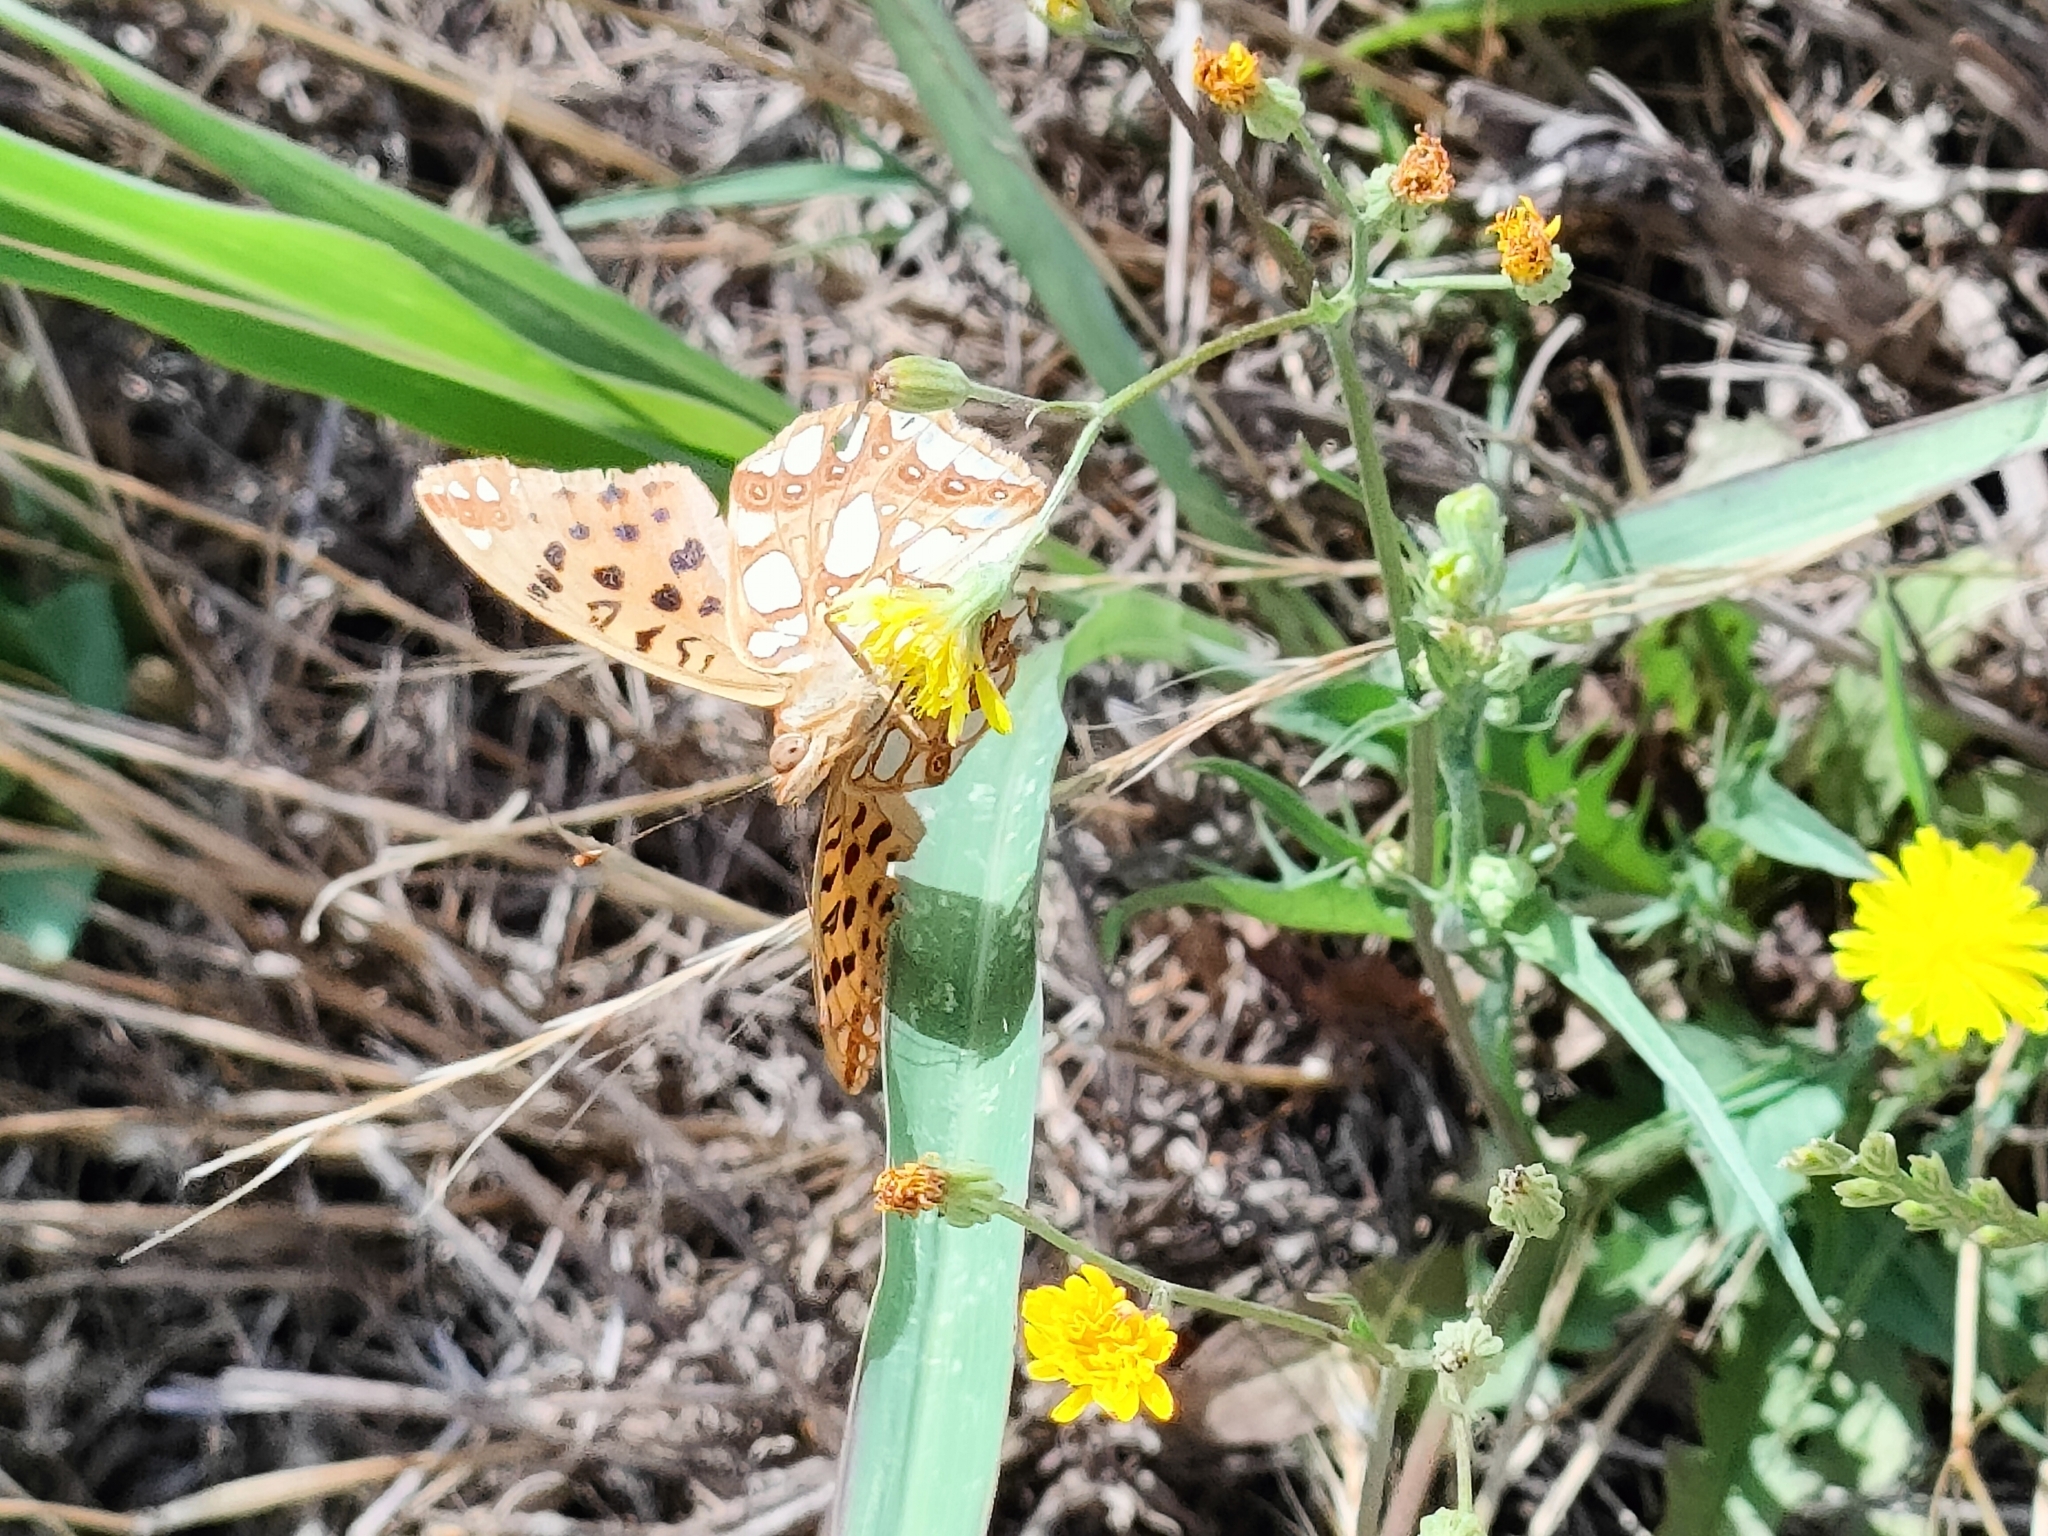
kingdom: Animalia
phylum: Arthropoda
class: Insecta
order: Lepidoptera
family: Nymphalidae
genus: Issoria
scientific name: Issoria lathonia
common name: Queen of spain fritillary
